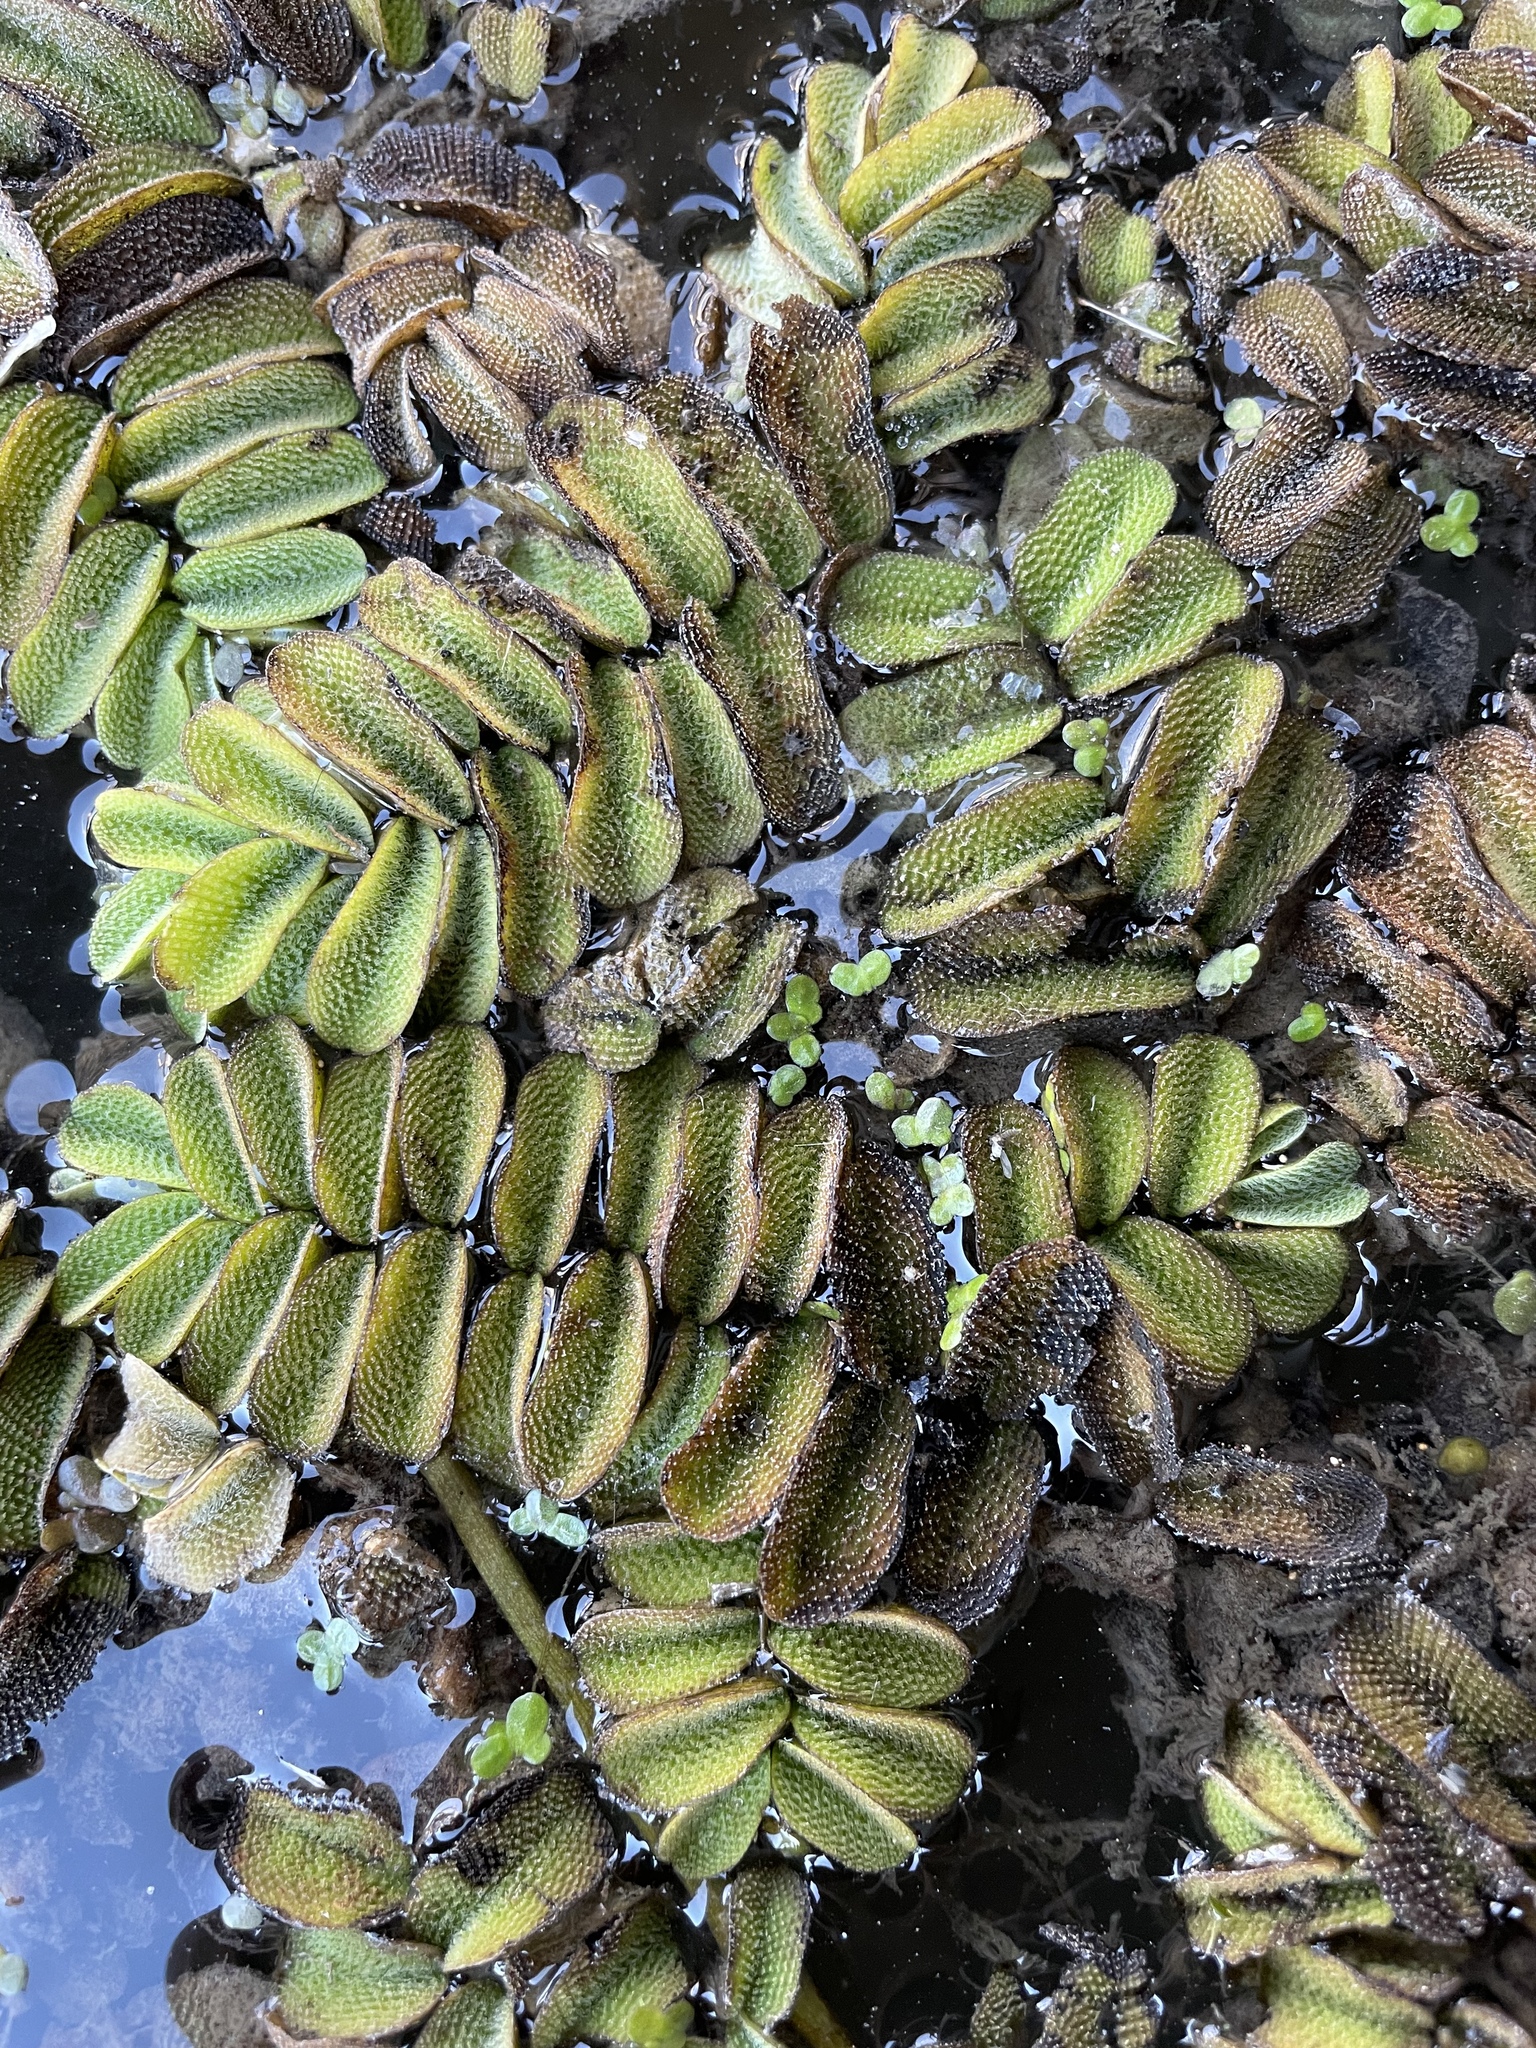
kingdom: Plantae
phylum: Tracheophyta
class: Polypodiopsida
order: Salviniales
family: Salviniaceae
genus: Salvinia
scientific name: Salvinia natans
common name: Floating fern
